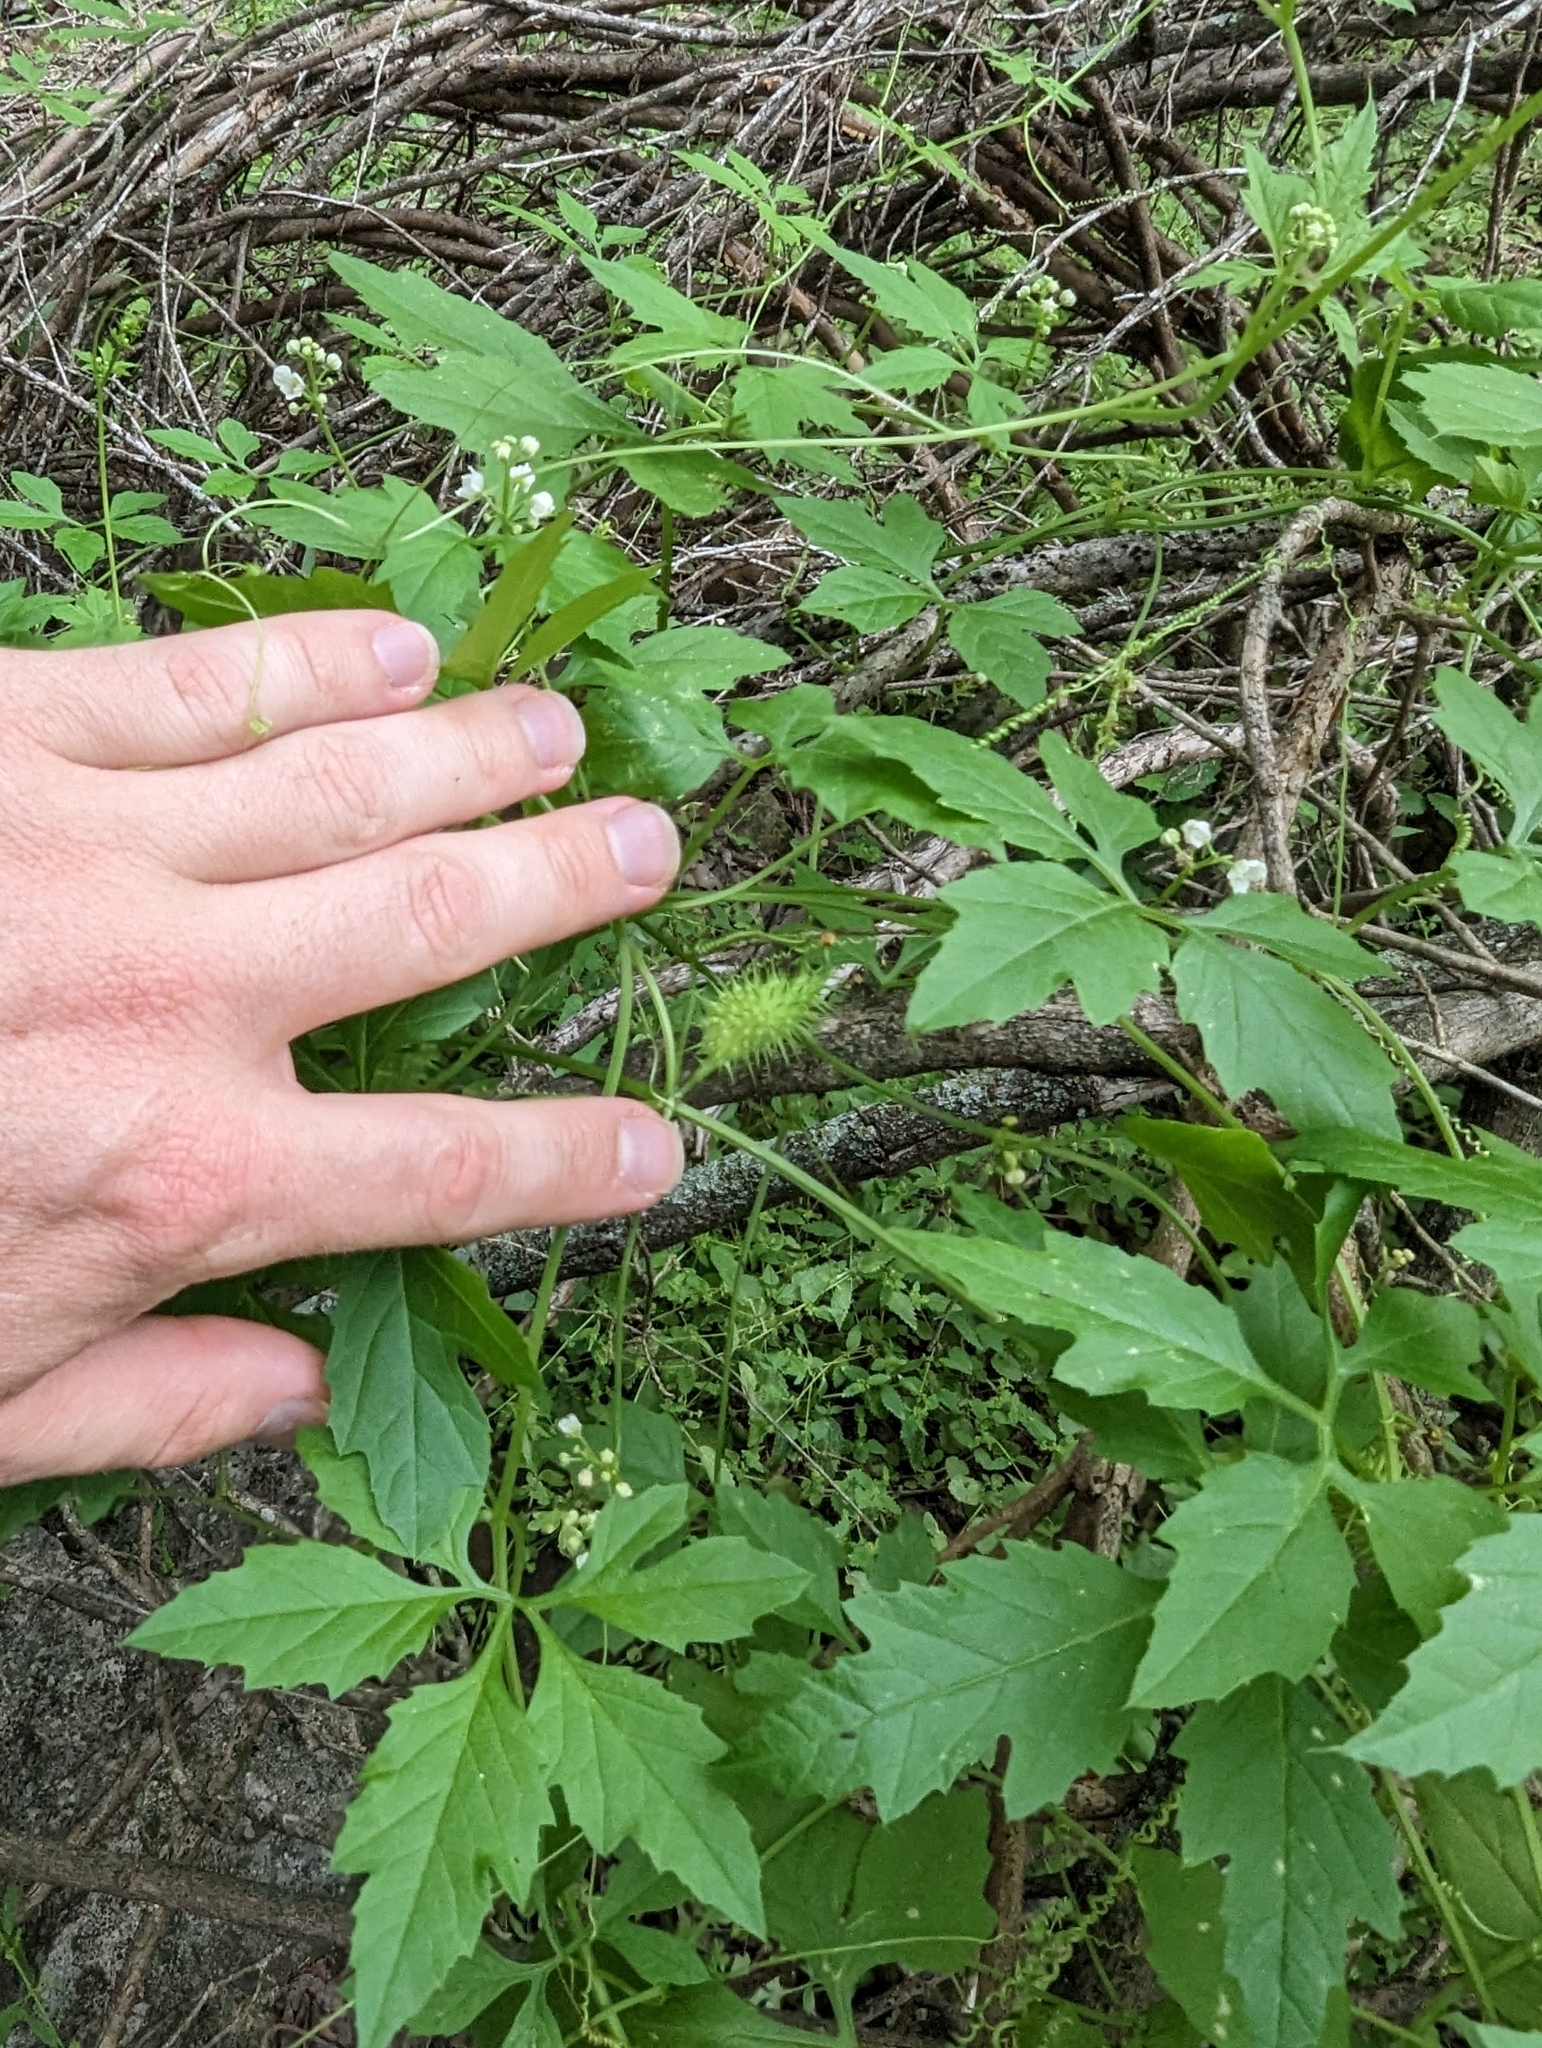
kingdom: Plantae
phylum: Tracheophyta
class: Magnoliopsida
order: Cucurbitales
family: Cucurbitaceae
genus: Cyclanthera
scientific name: Cyclanthera naudiniana
